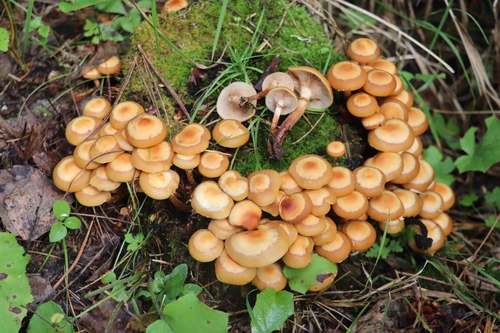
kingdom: Fungi
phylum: Basidiomycota
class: Agaricomycetes
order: Agaricales
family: Strophariaceae
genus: Kuehneromyces
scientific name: Kuehneromyces mutabilis
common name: Sheathed woodtuft
